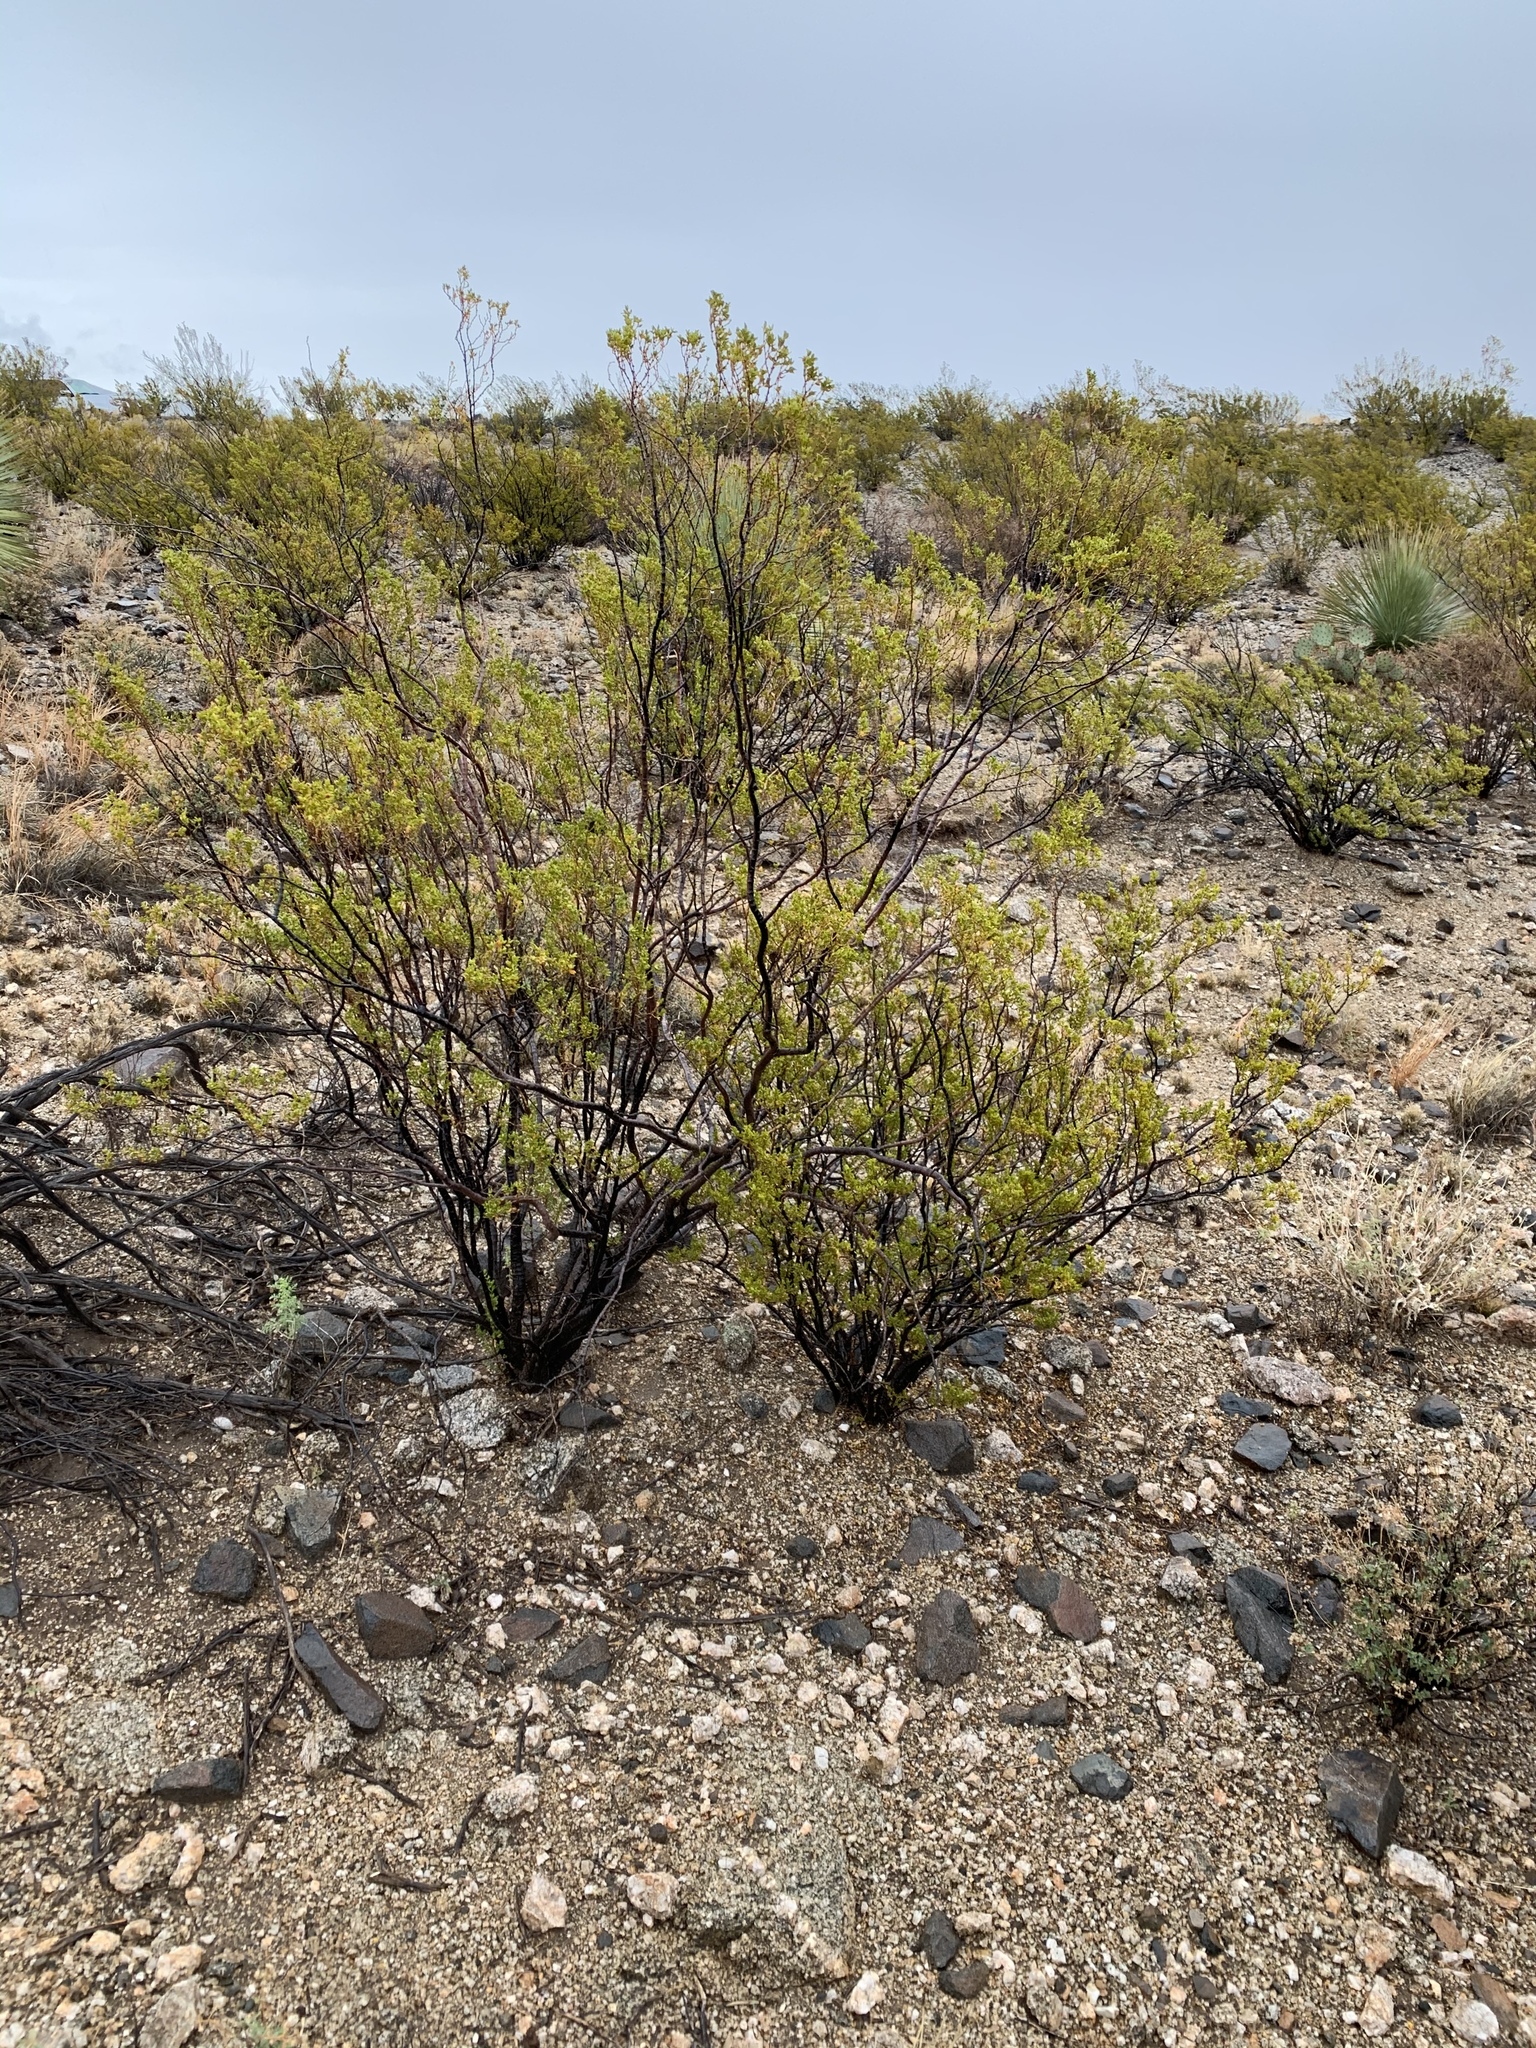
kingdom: Plantae
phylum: Tracheophyta
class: Magnoliopsida
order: Zygophyllales
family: Zygophyllaceae
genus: Larrea
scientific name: Larrea tridentata
